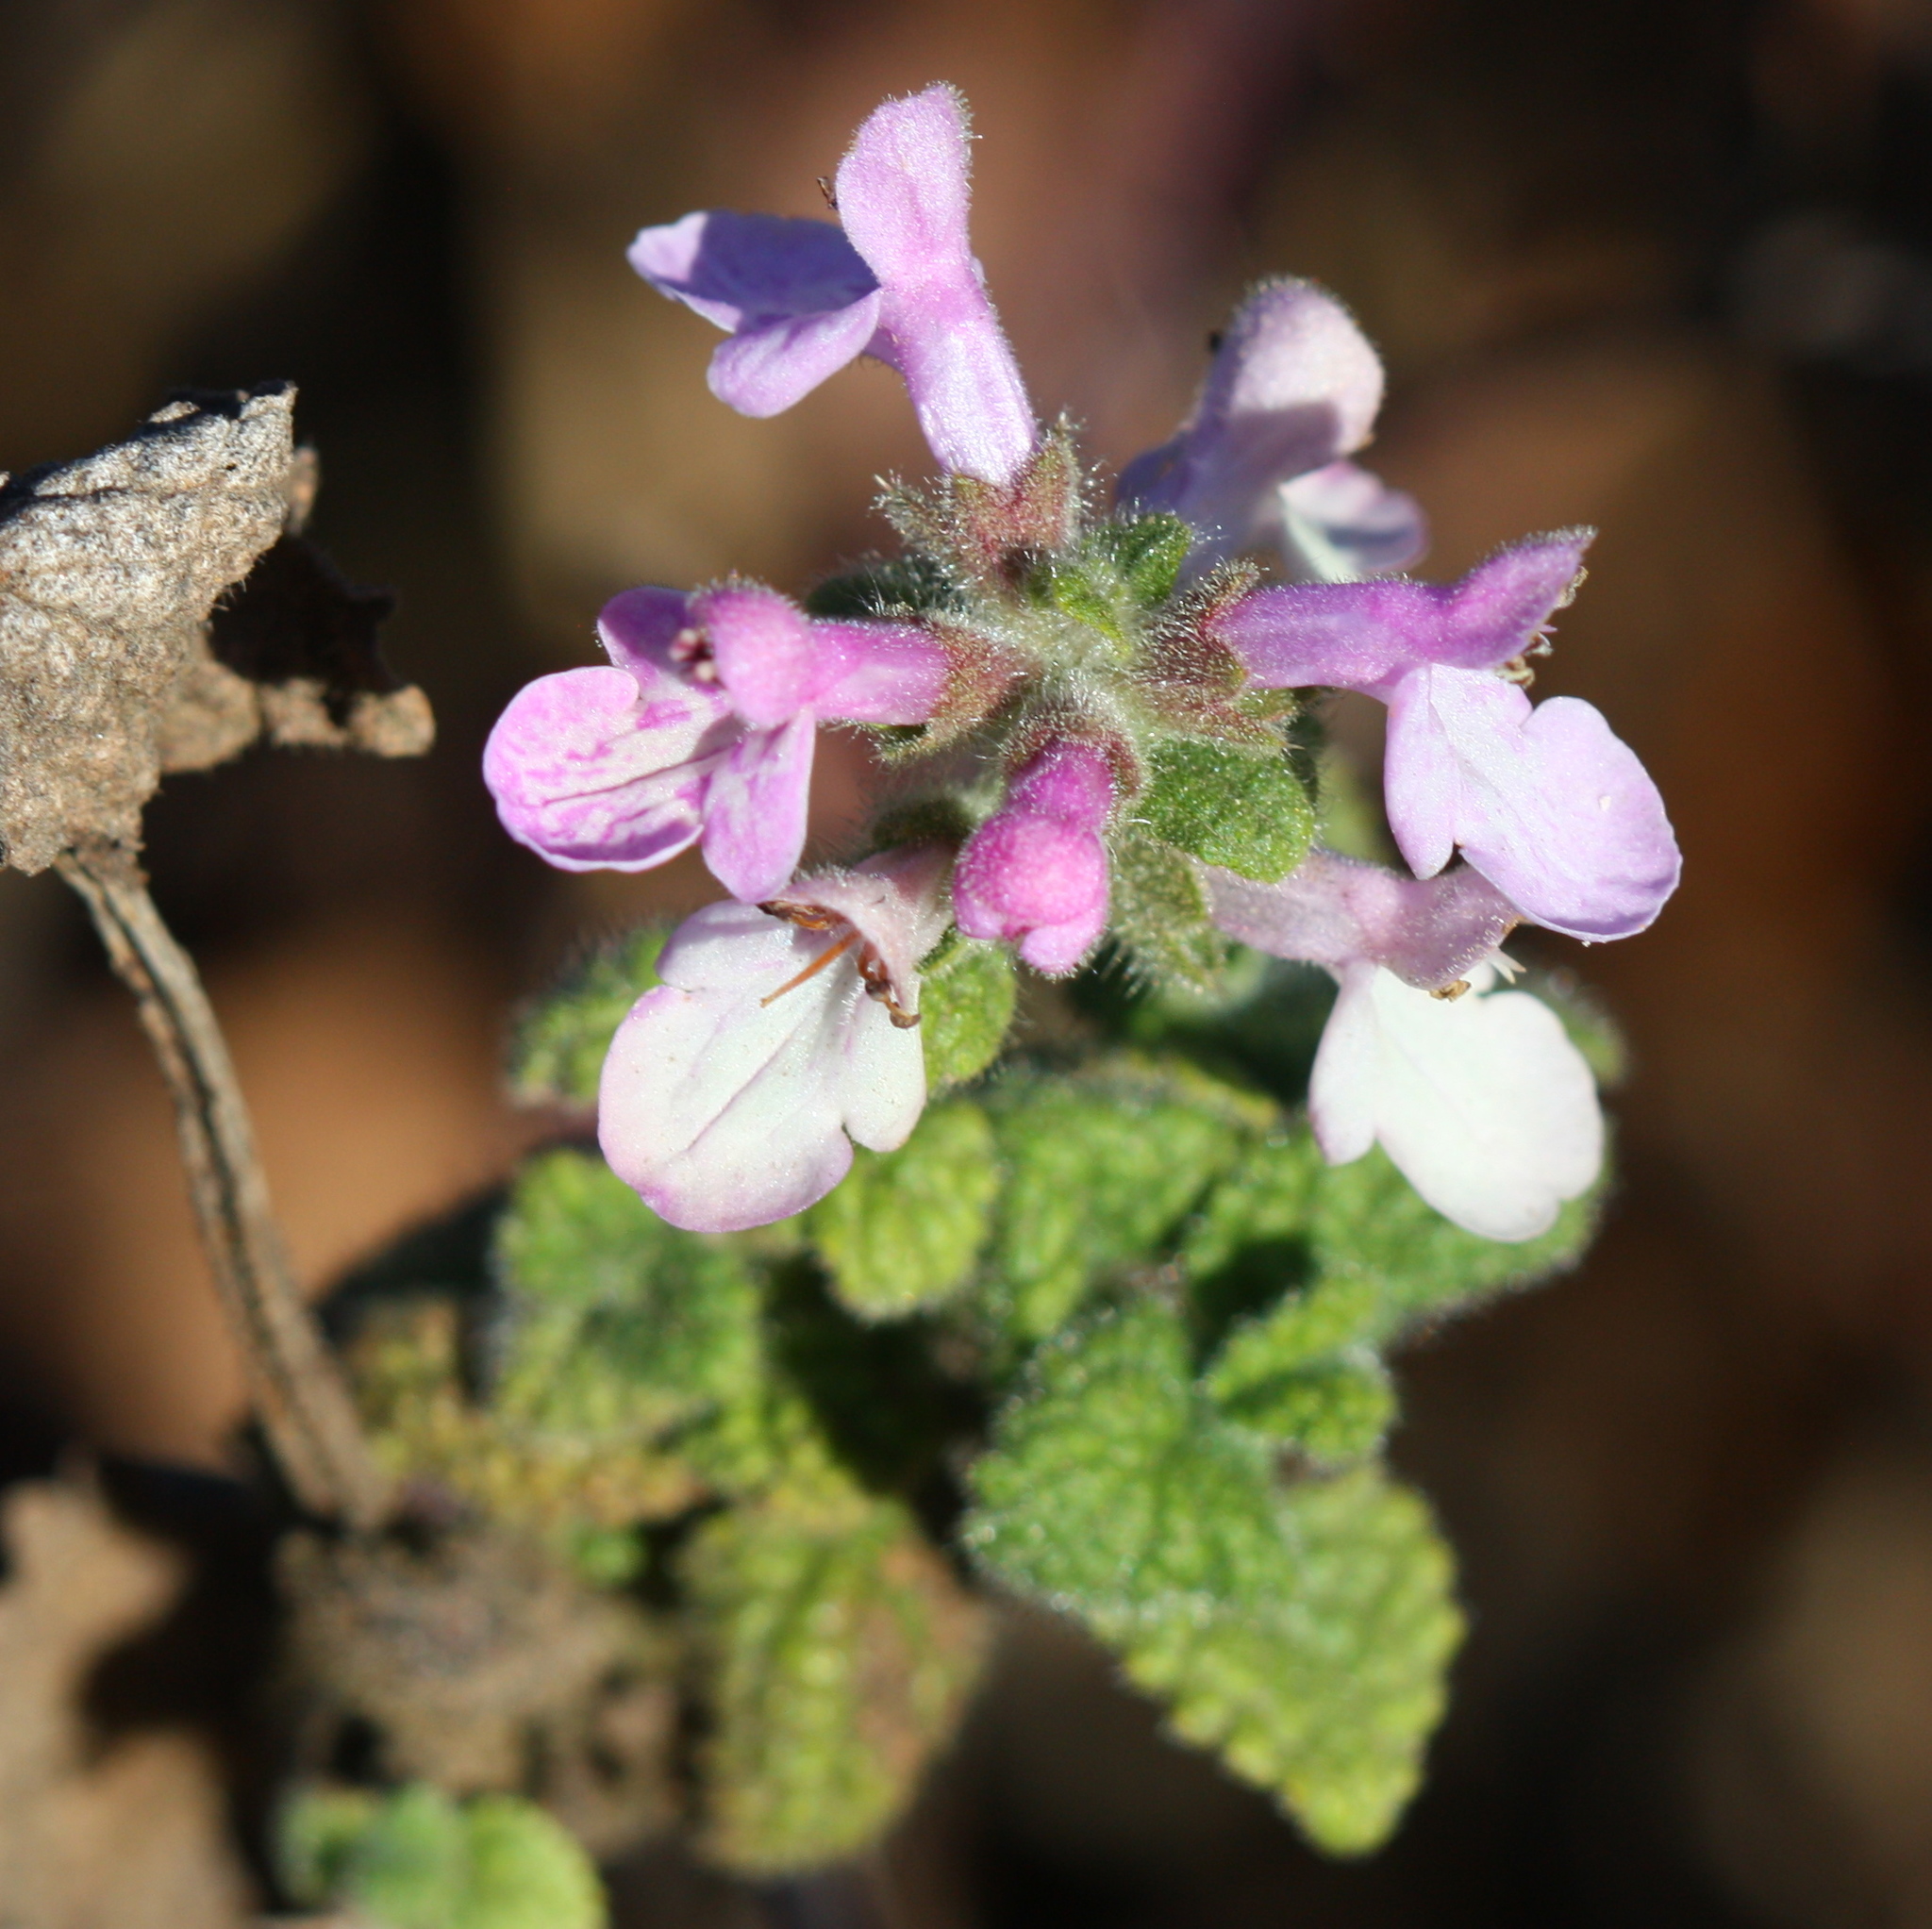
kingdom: Plantae
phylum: Tracheophyta
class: Magnoliopsida
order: Lamiales
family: Lamiaceae
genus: Stachys
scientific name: Stachys bullata
